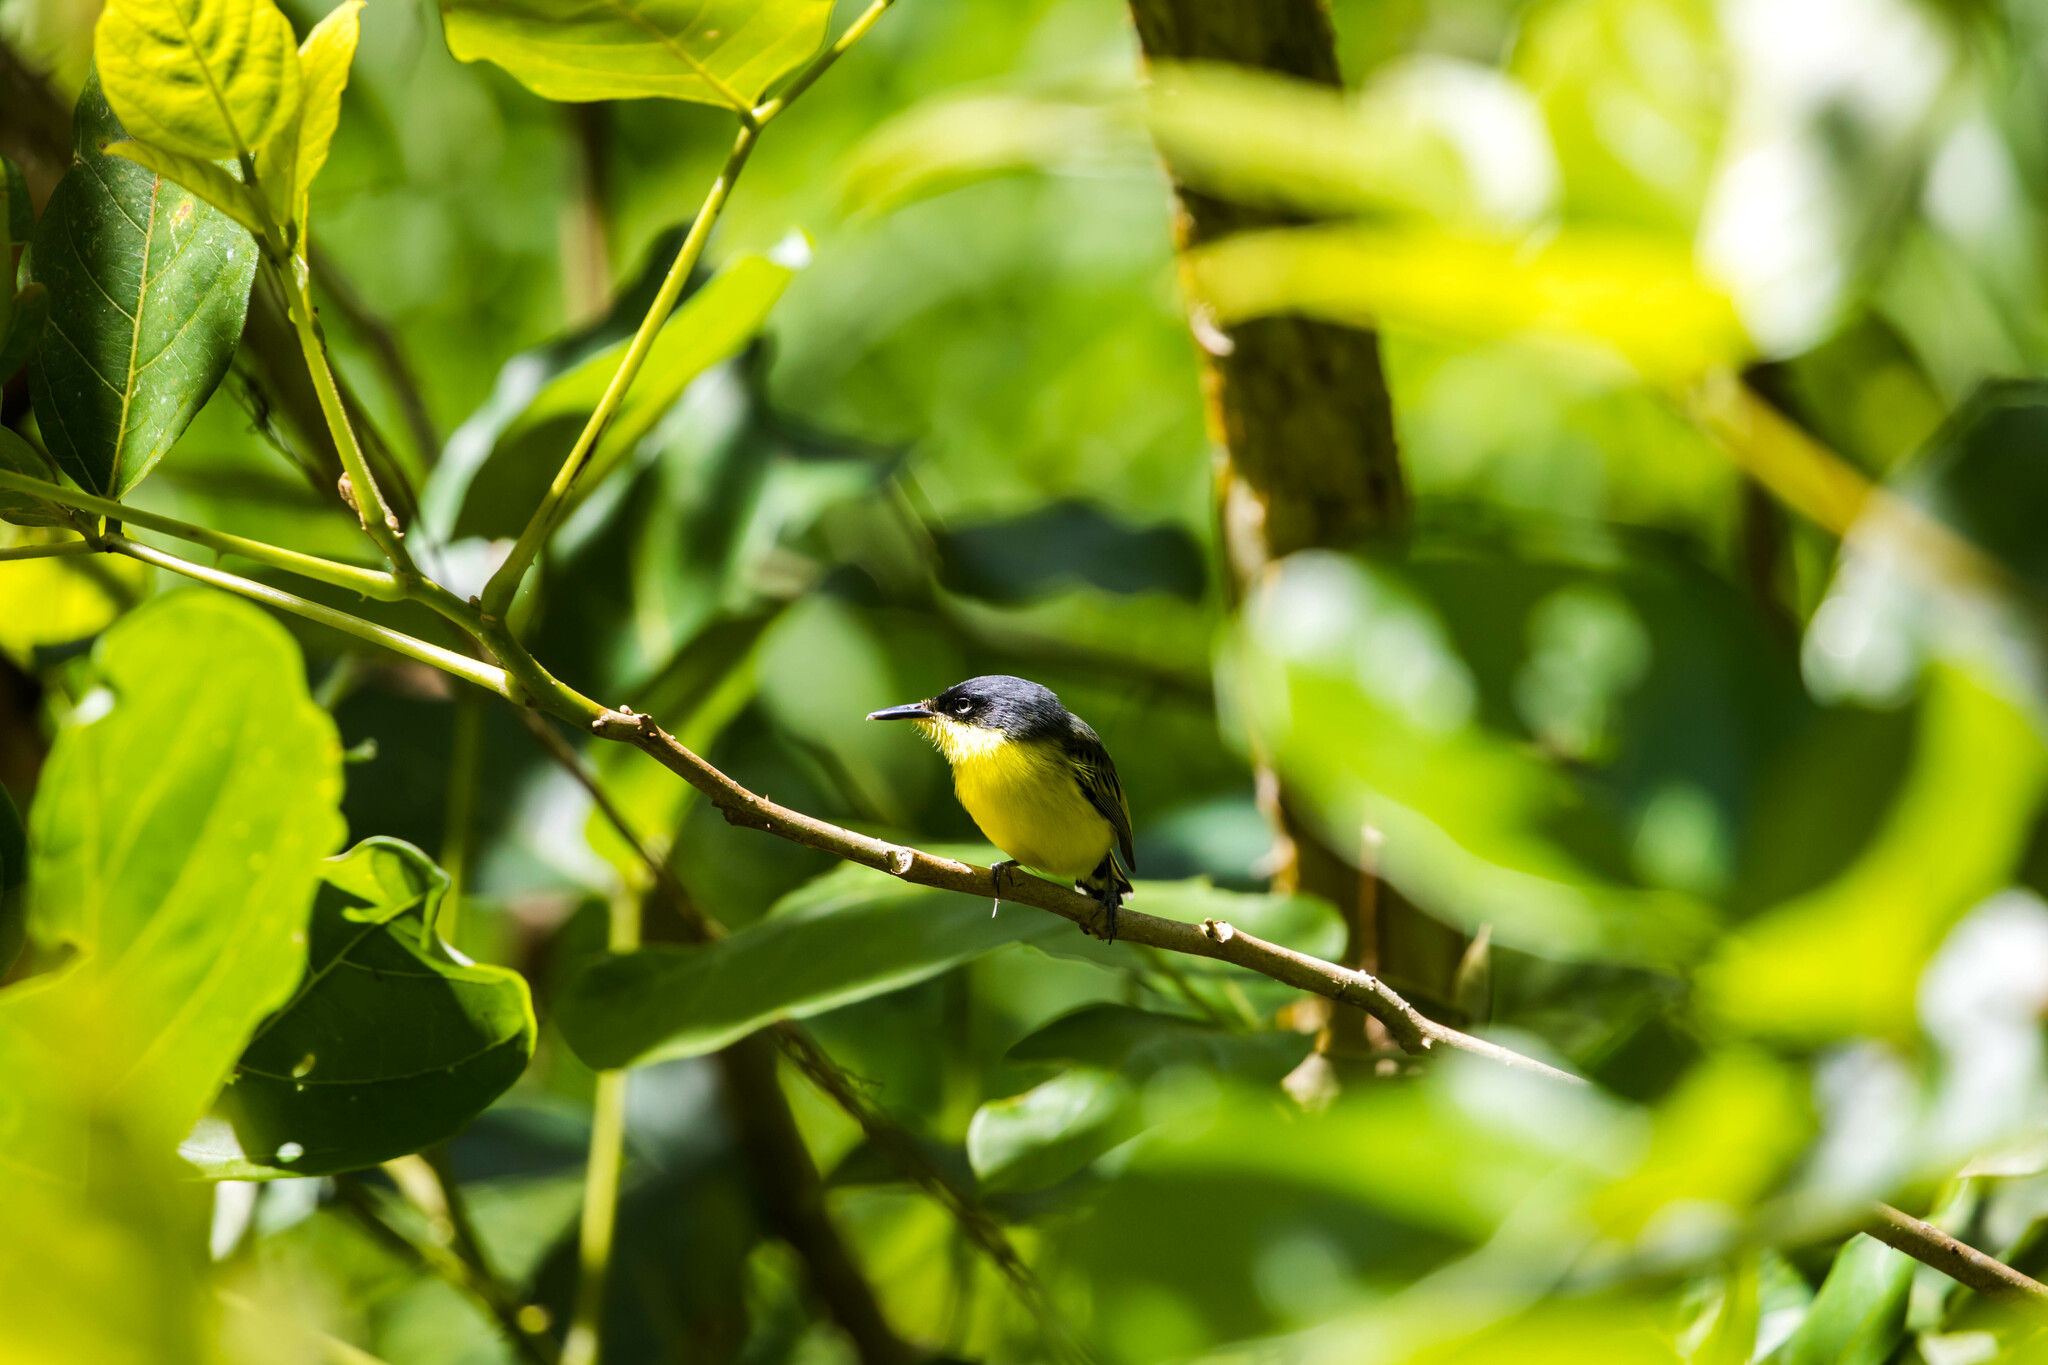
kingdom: Animalia
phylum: Chordata
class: Aves
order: Passeriformes
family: Tyrannidae
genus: Todirostrum
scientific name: Todirostrum cinereum
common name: Common tody-flycatcher
